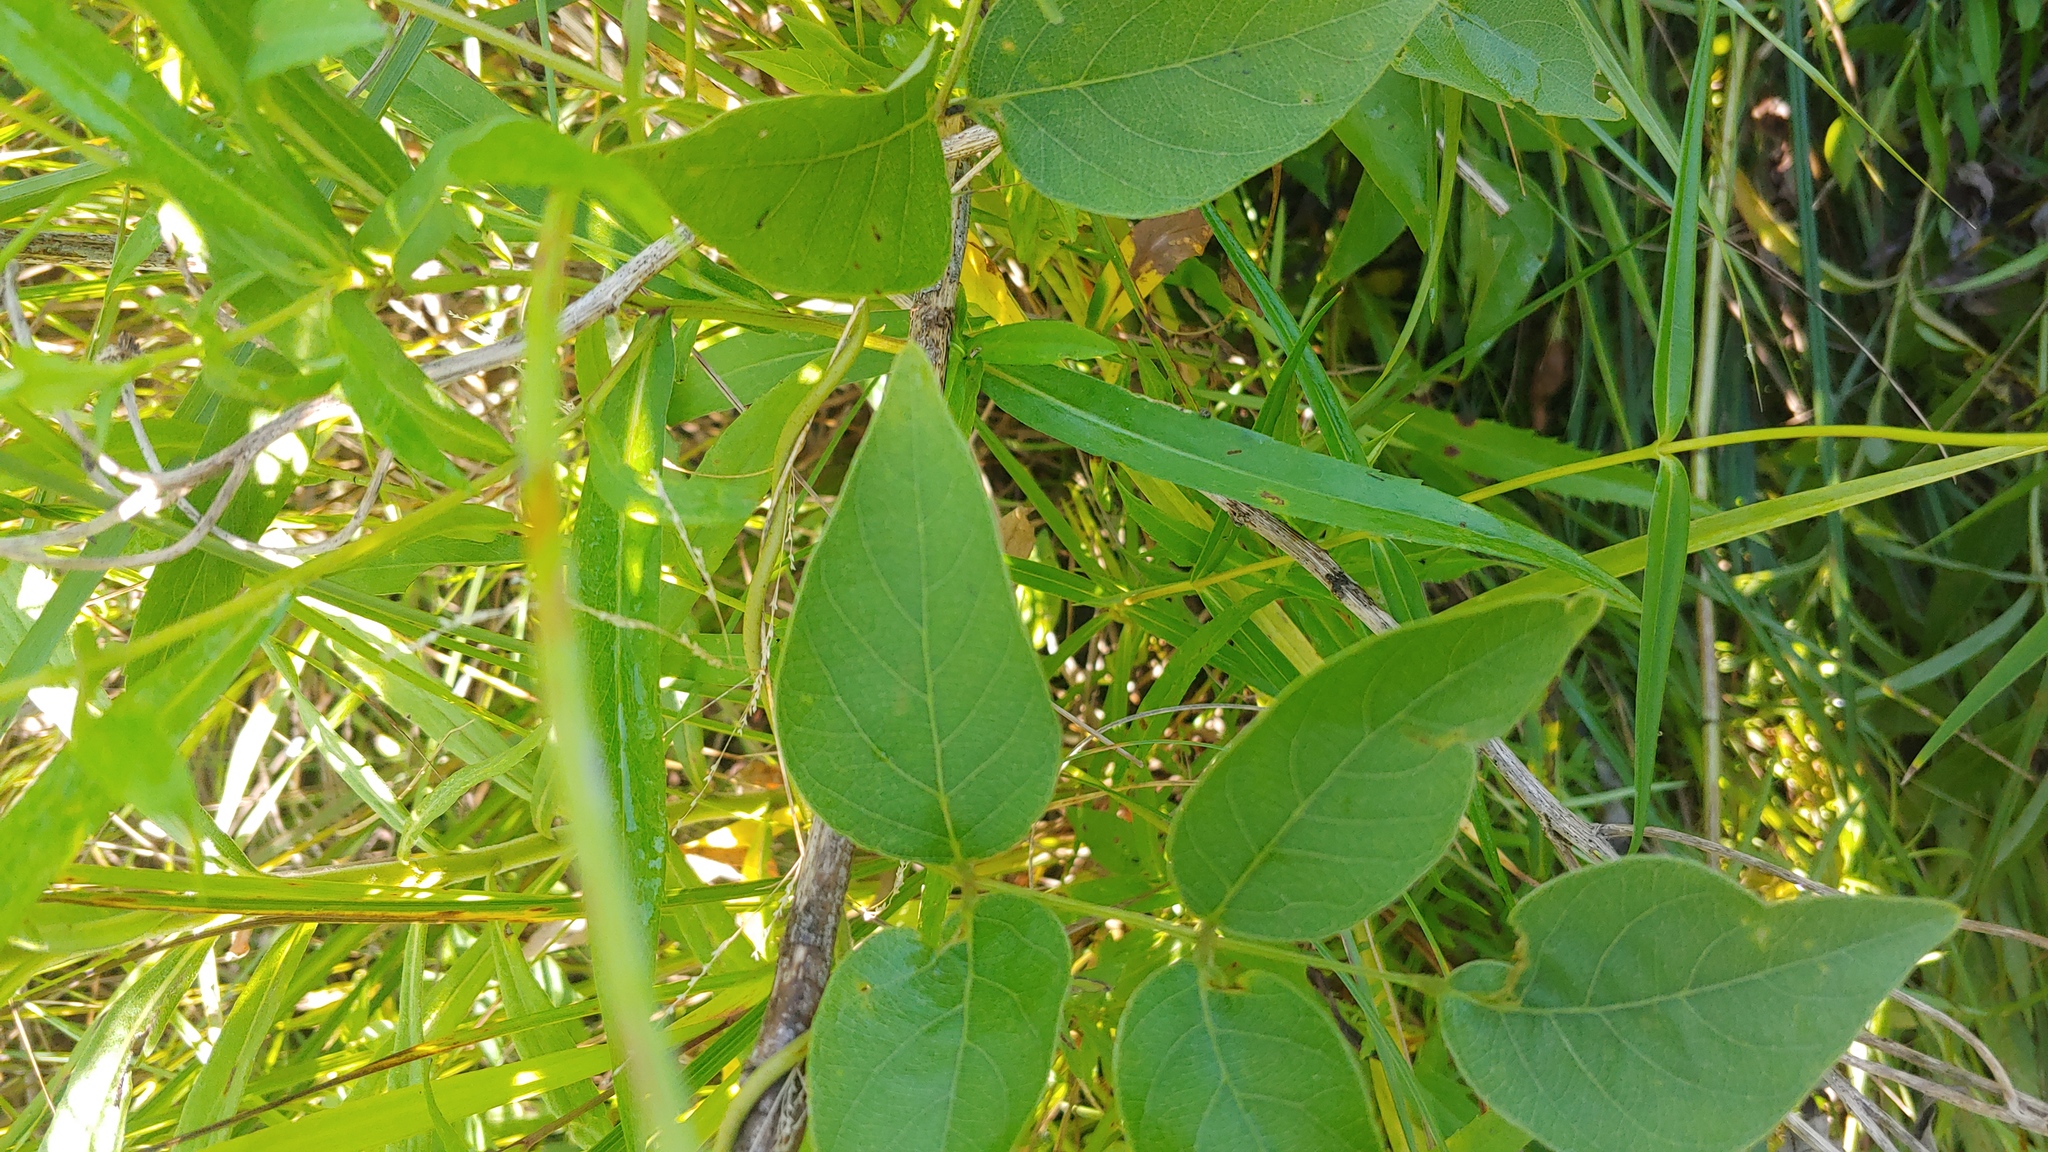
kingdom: Plantae
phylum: Tracheophyta
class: Magnoliopsida
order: Ericales
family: Polemoniaceae
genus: Phlox
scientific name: Phlox glaberrima
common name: Smooth phlox
